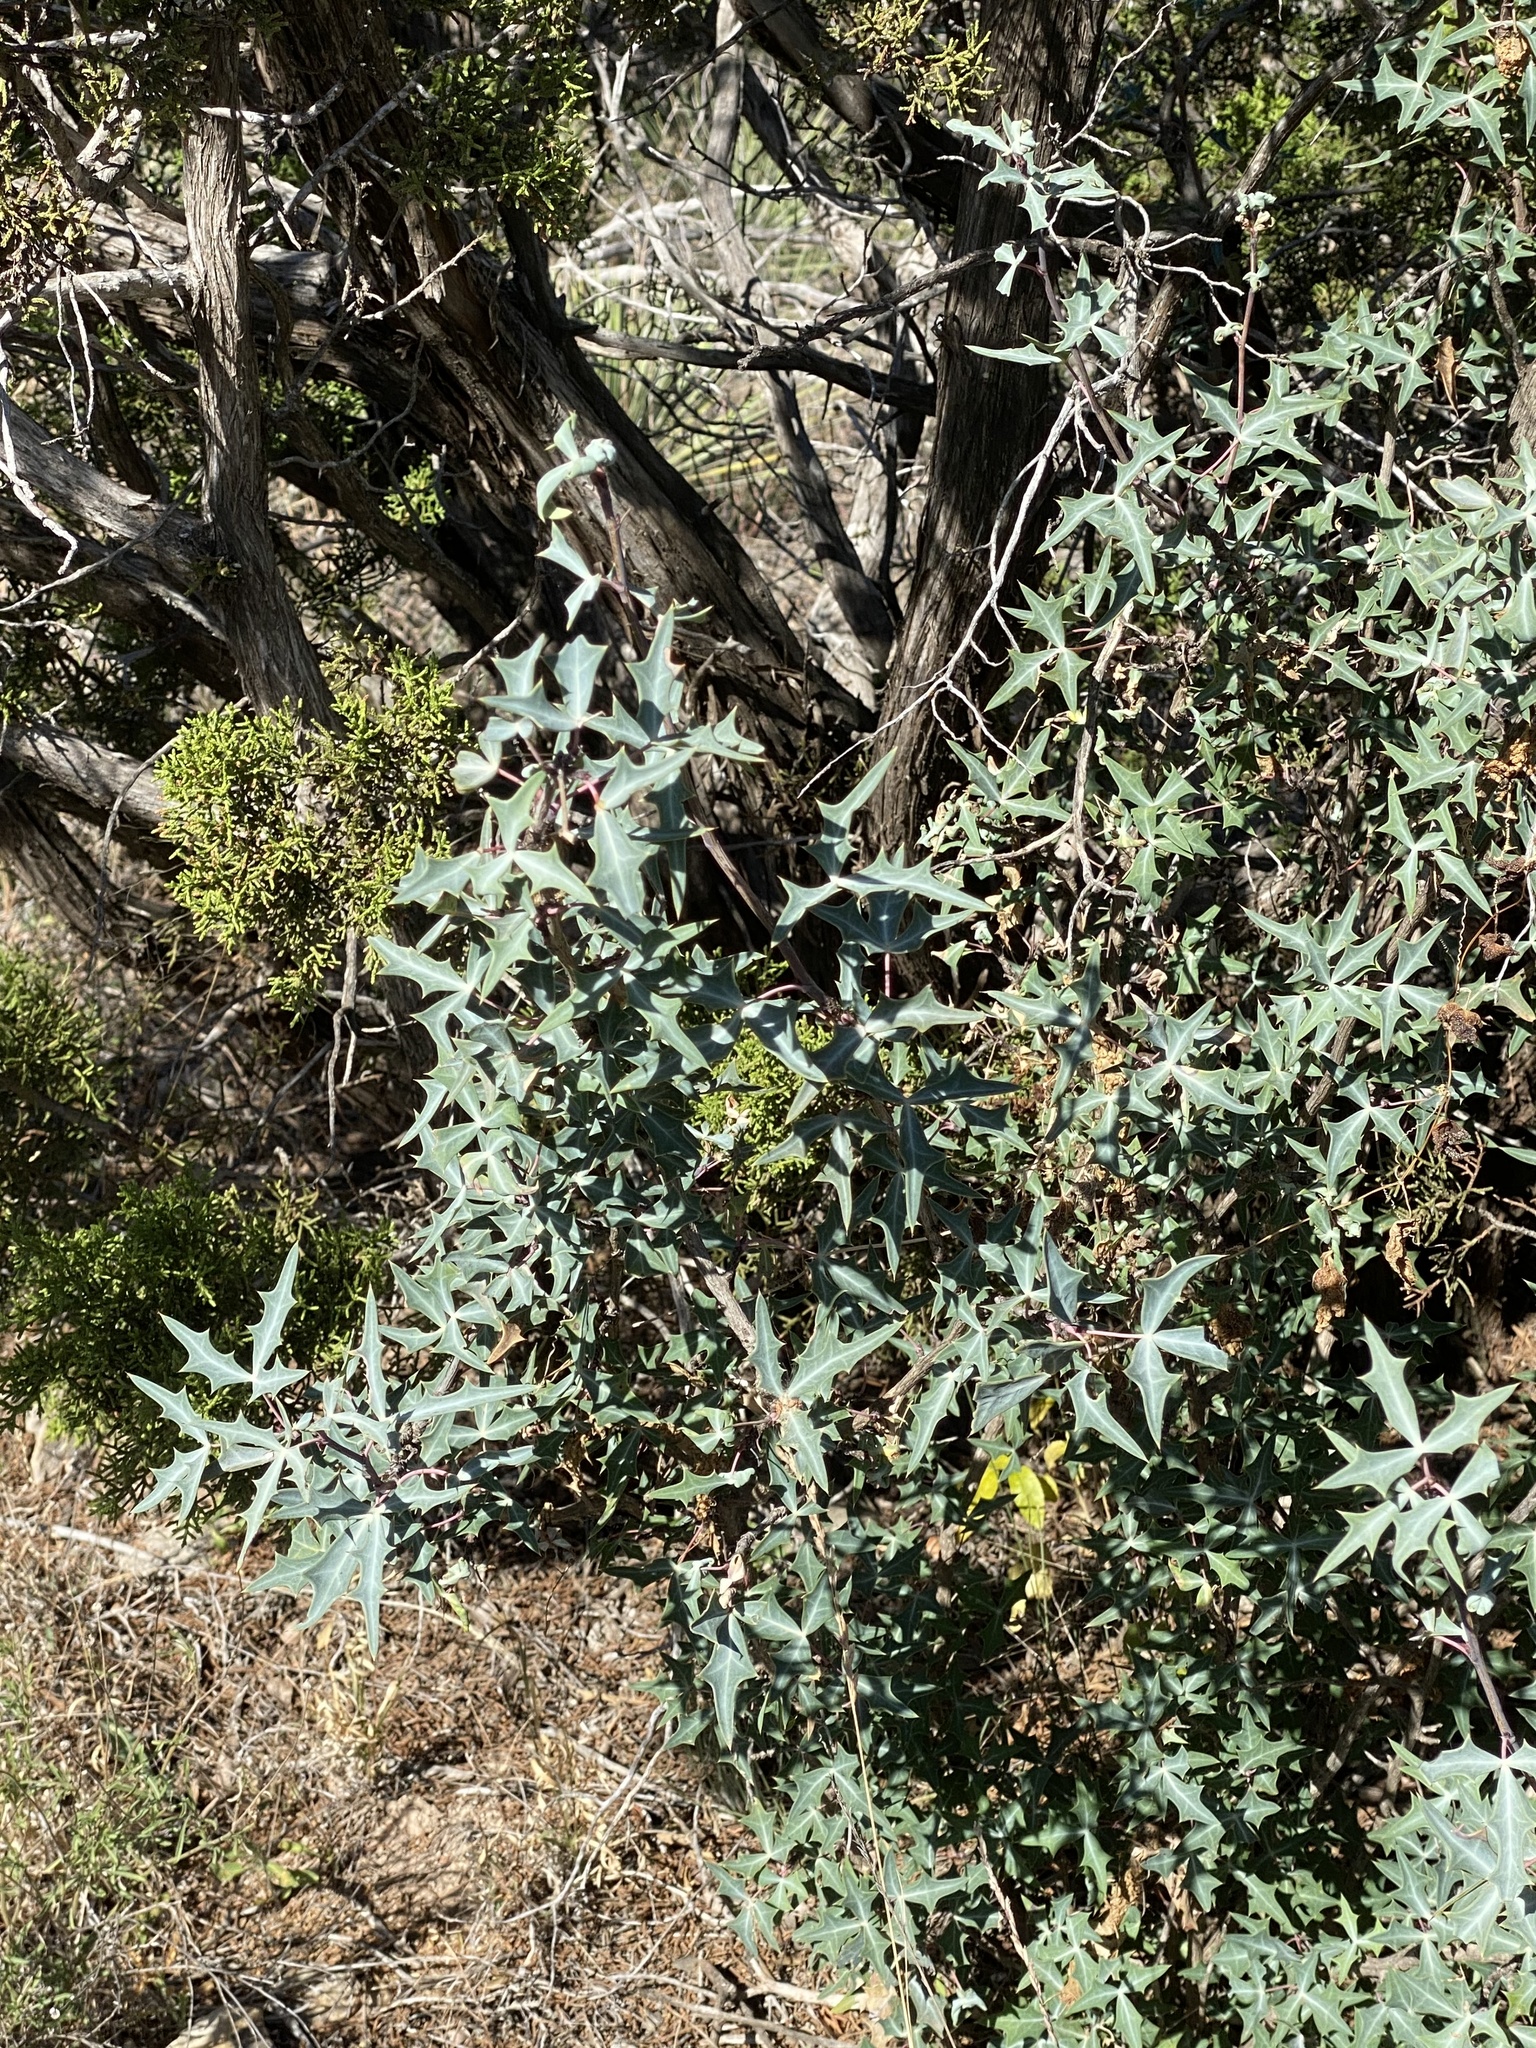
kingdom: Plantae
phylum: Tracheophyta
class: Magnoliopsida
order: Ranunculales
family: Berberidaceae
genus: Alloberberis
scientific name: Alloberberis trifoliolata
